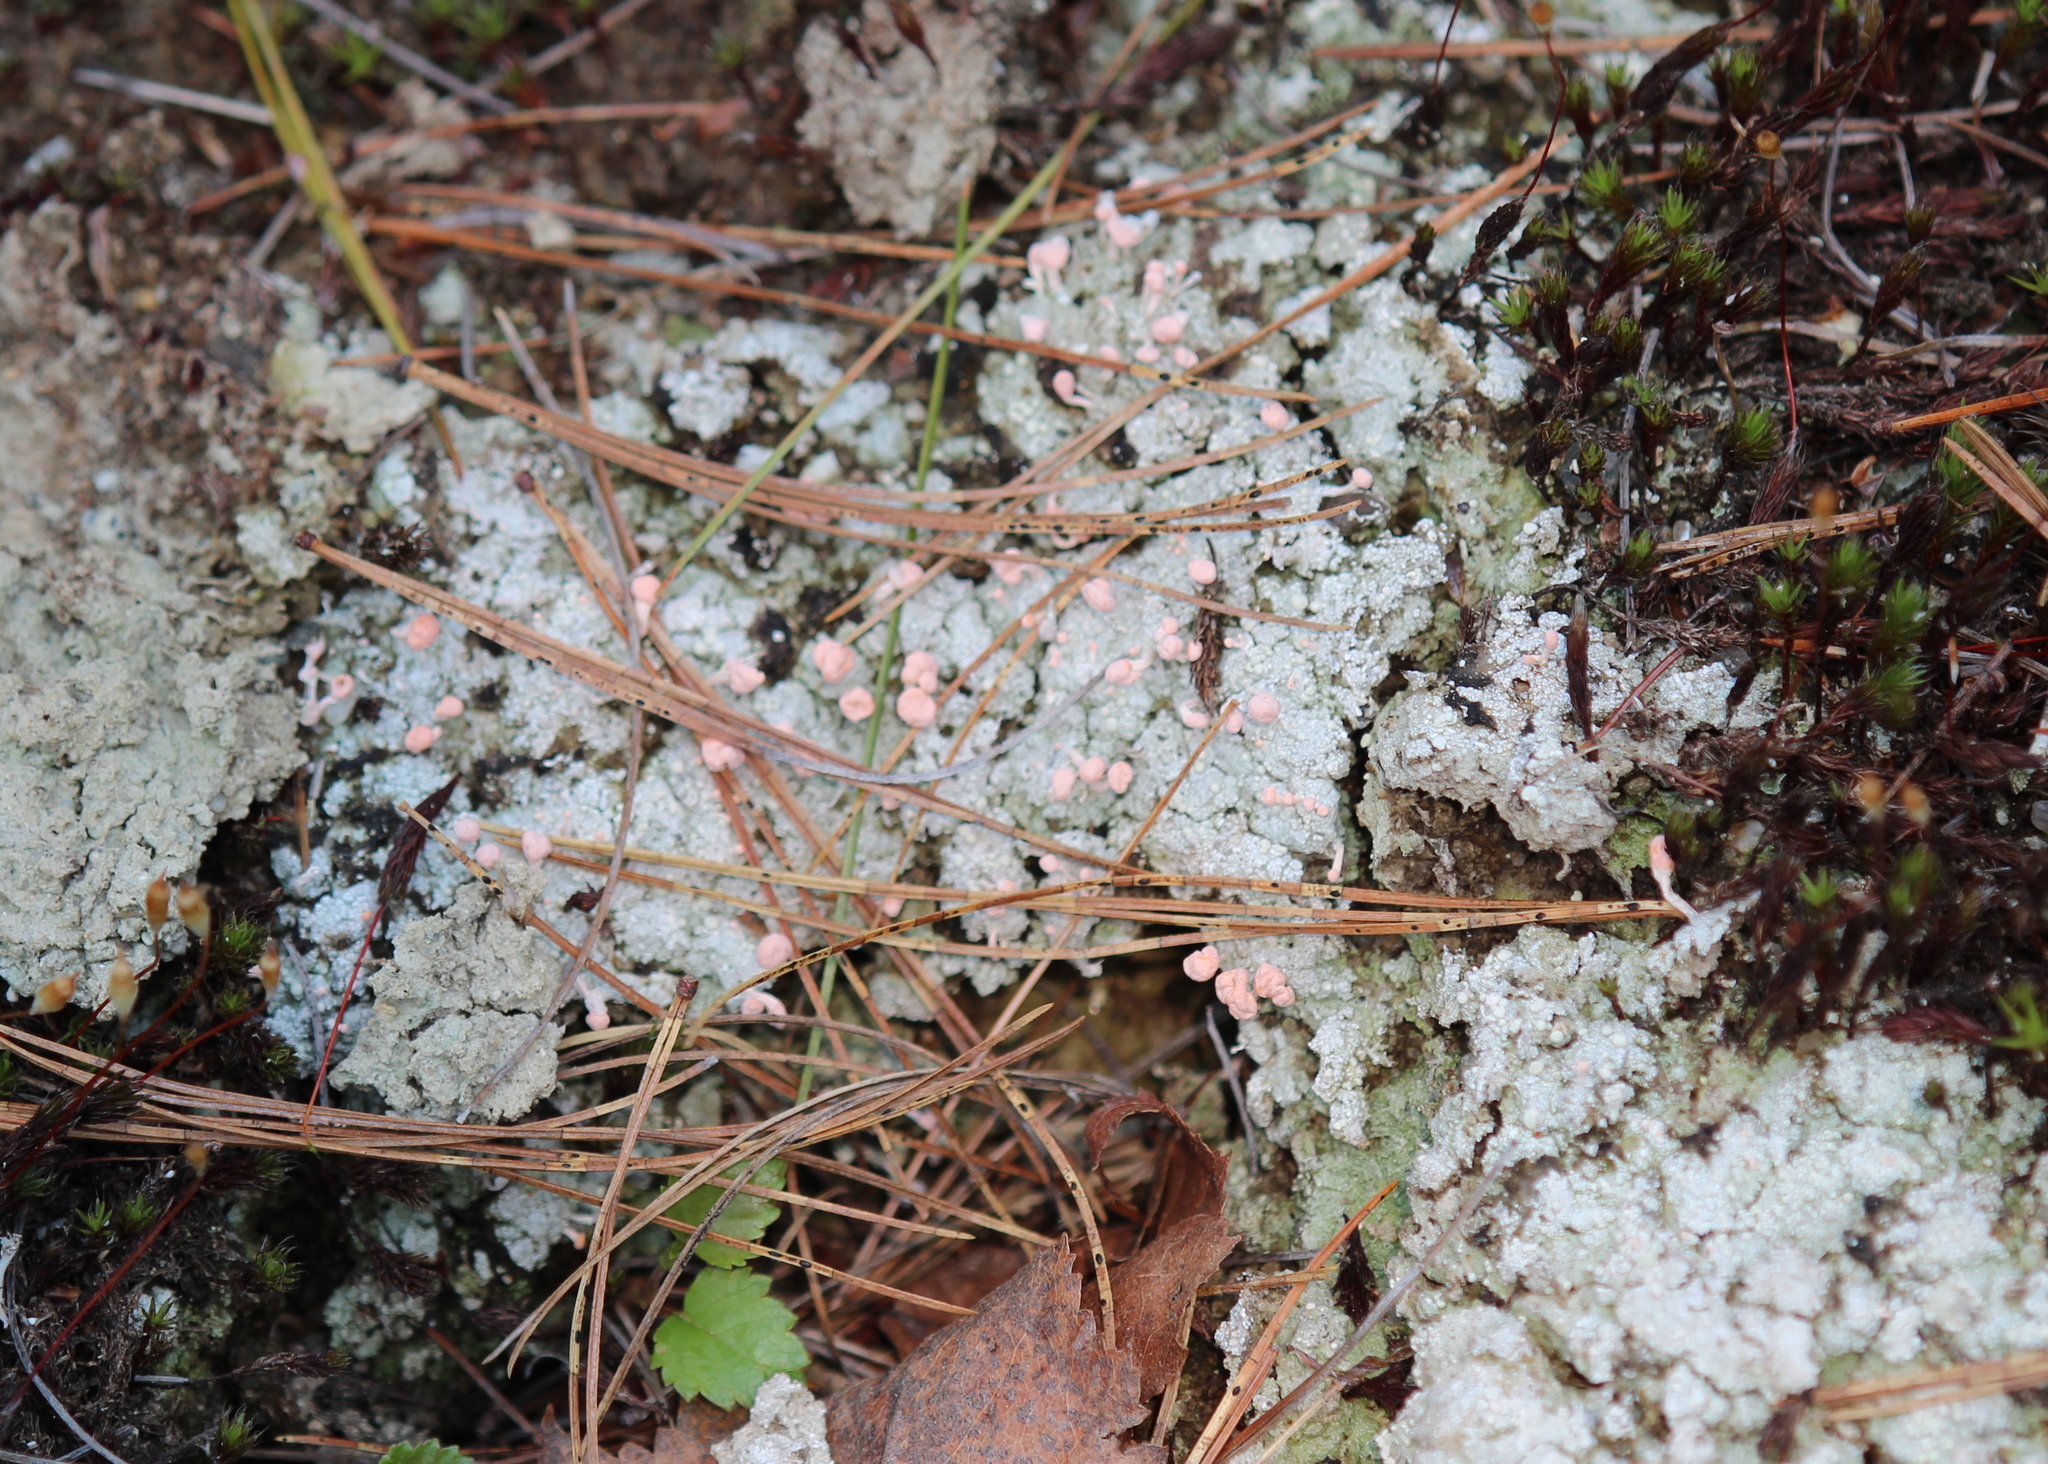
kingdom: Fungi
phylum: Ascomycota
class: Lecanoromycetes
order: Pertusariales
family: Icmadophilaceae
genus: Dibaeis
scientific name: Dibaeis baeomyces
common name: Pink earth lichen
